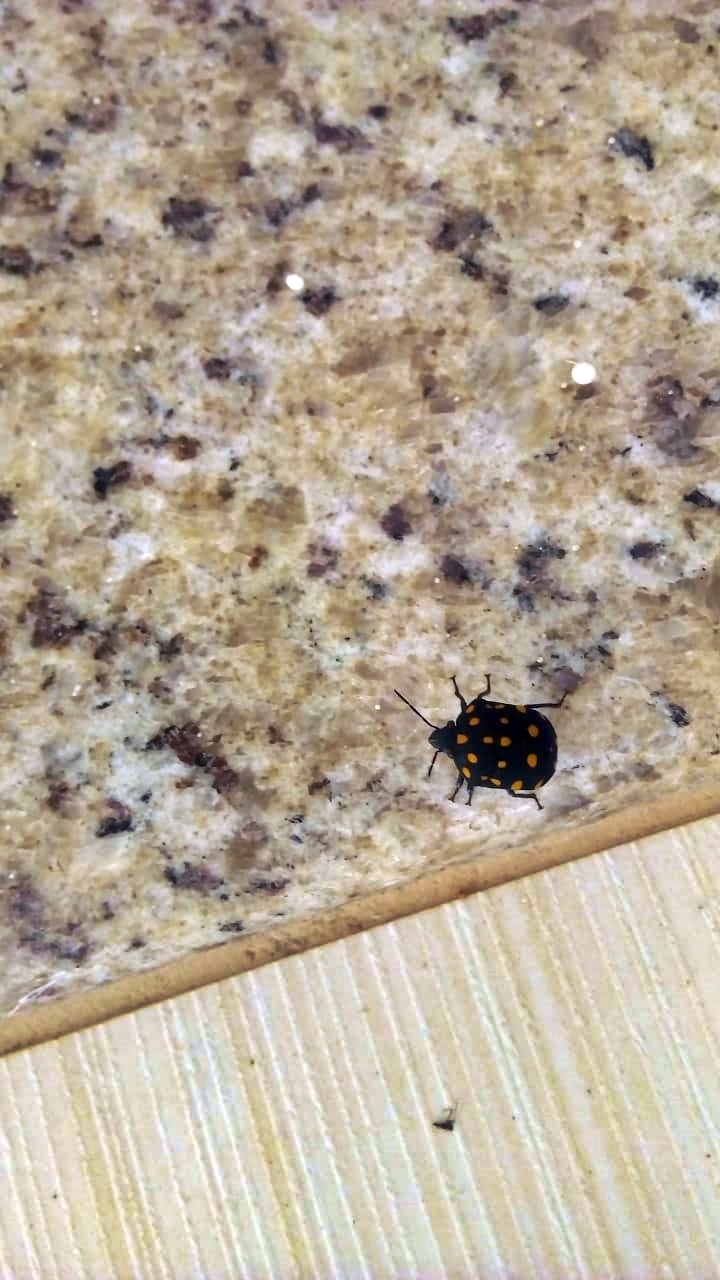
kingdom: Animalia
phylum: Arthropoda
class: Insecta
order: Hemiptera
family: Scutelleridae
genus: Pachycoris
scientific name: Pachycoris torridus
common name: Torrid jewel bug
